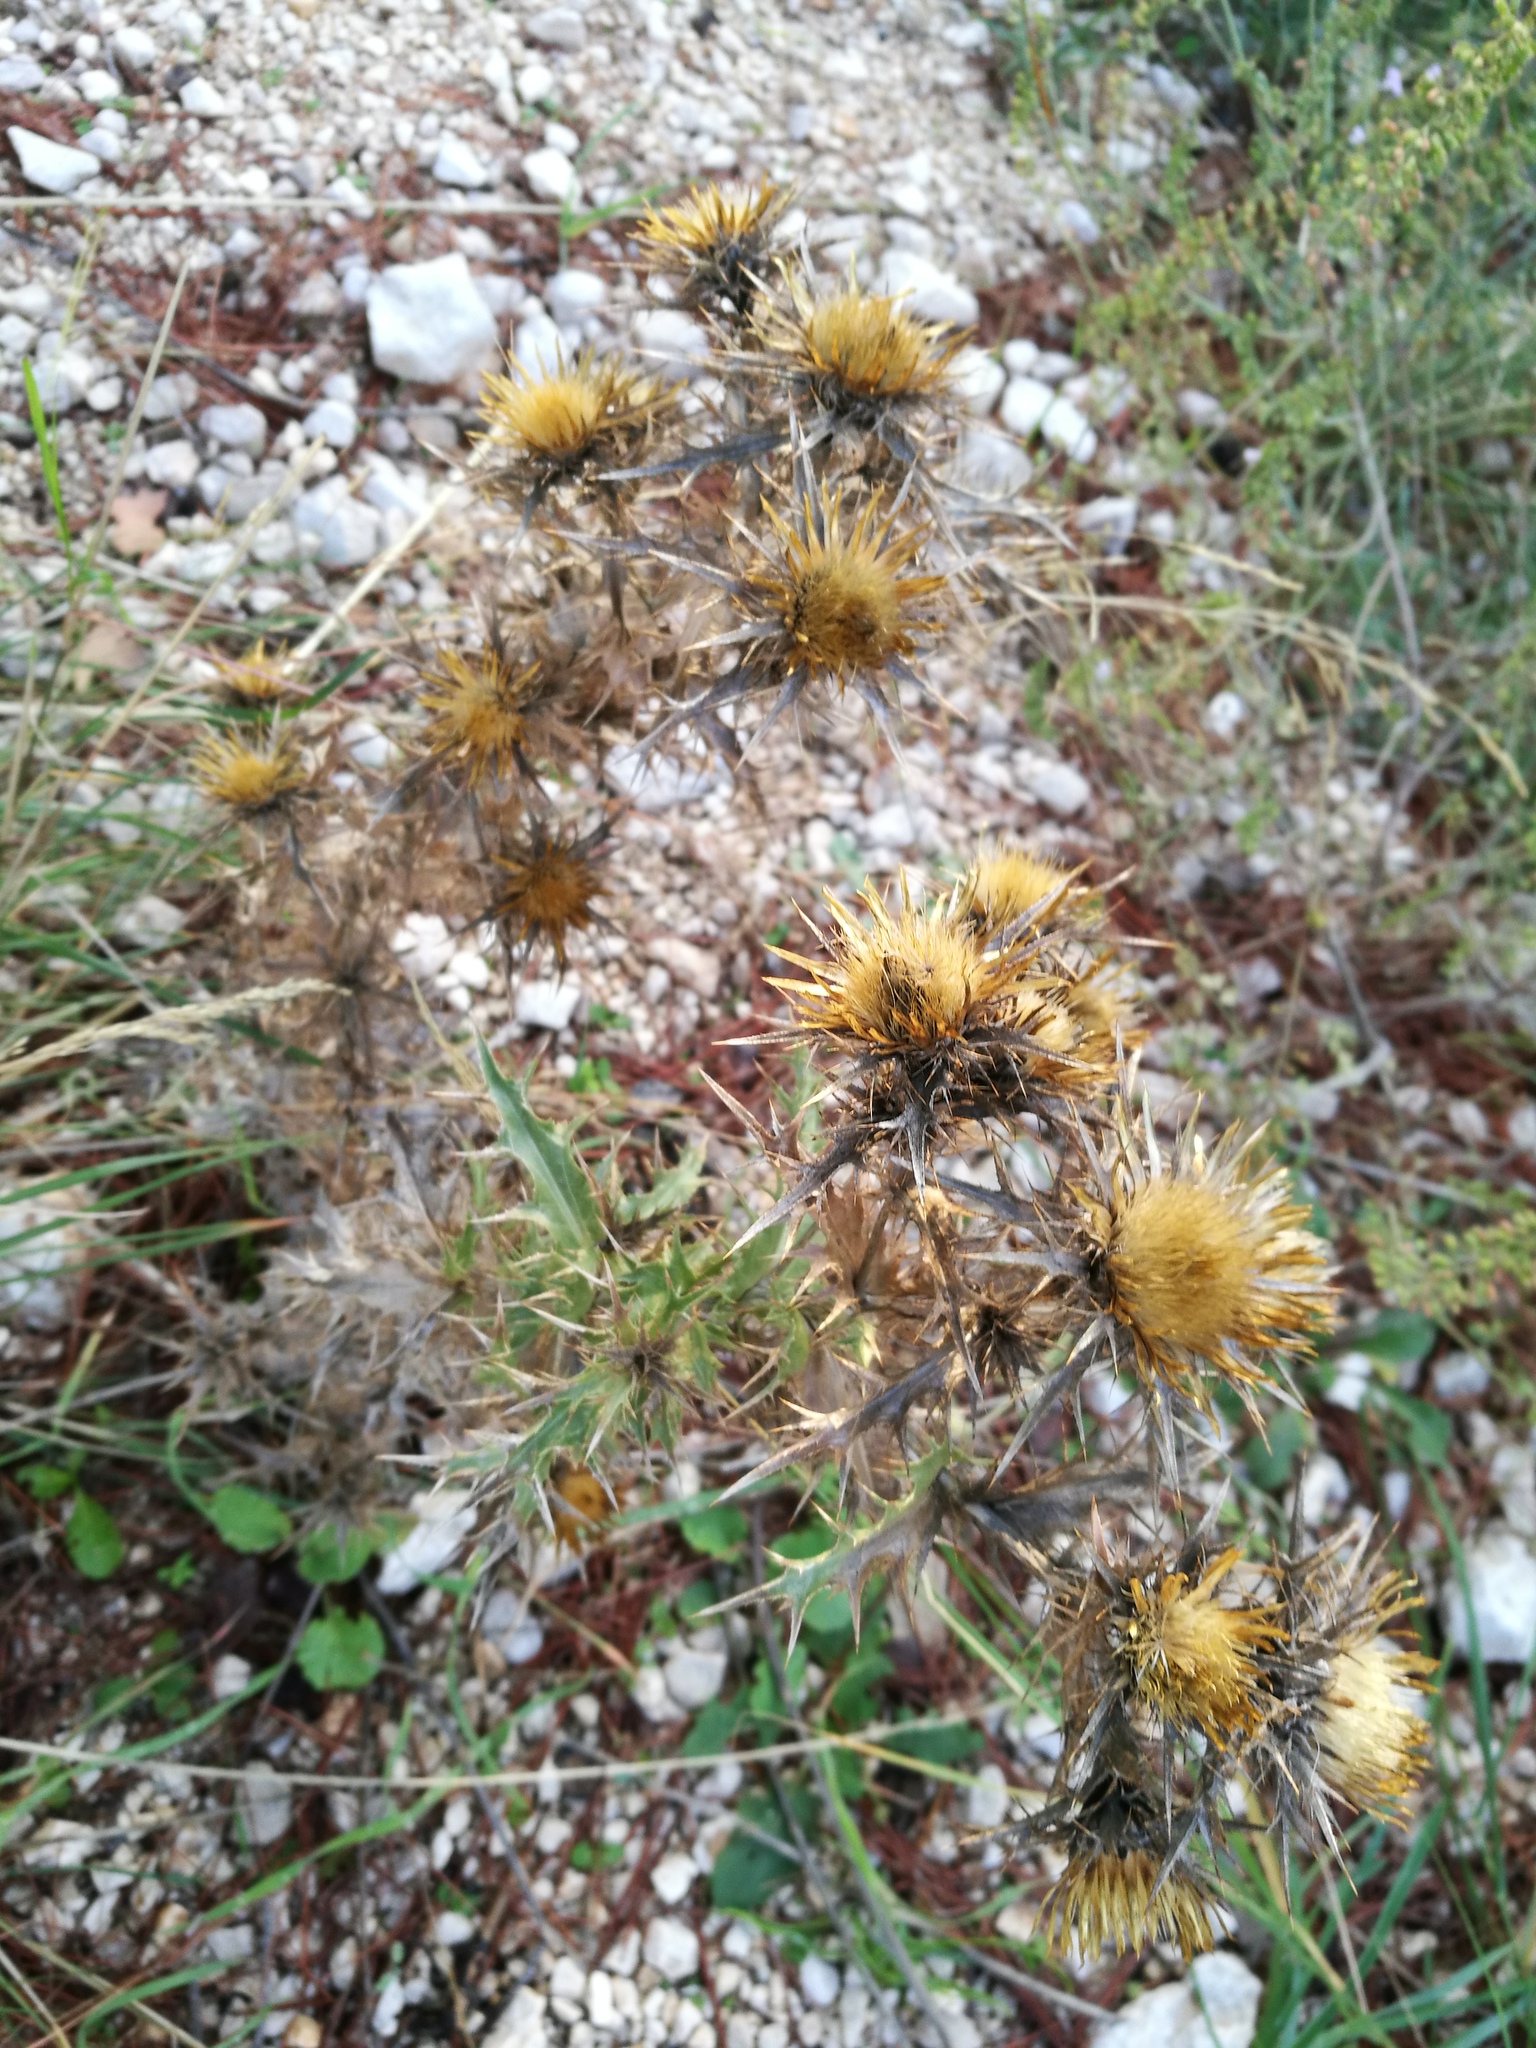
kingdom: Plantae
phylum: Tracheophyta
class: Magnoliopsida
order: Asterales
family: Asteraceae
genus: Carlina
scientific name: Carlina corymbosa
